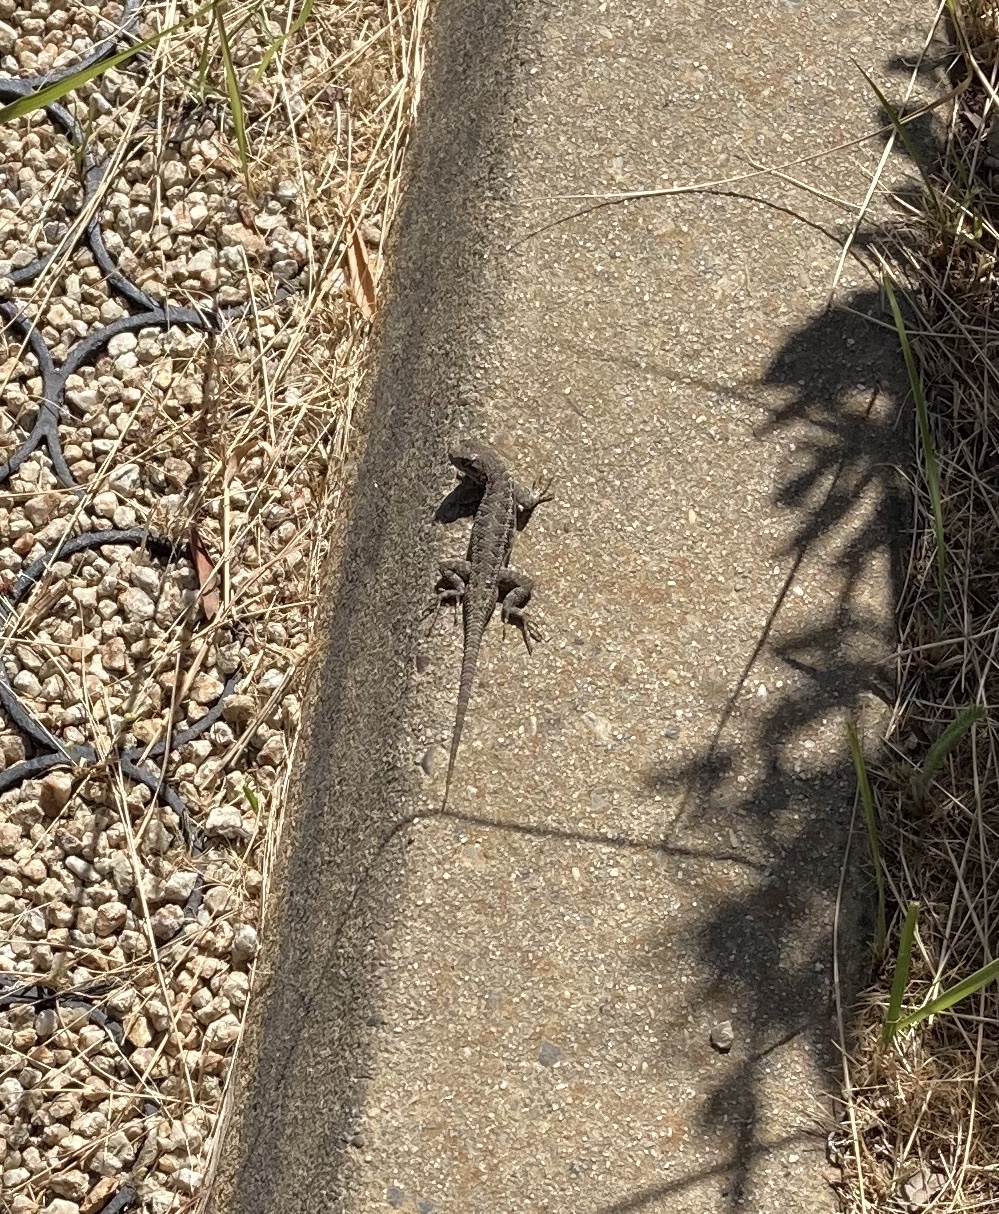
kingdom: Animalia
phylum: Chordata
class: Squamata
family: Phrynosomatidae
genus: Sceloporus
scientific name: Sceloporus occidentalis
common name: Western fence lizard
